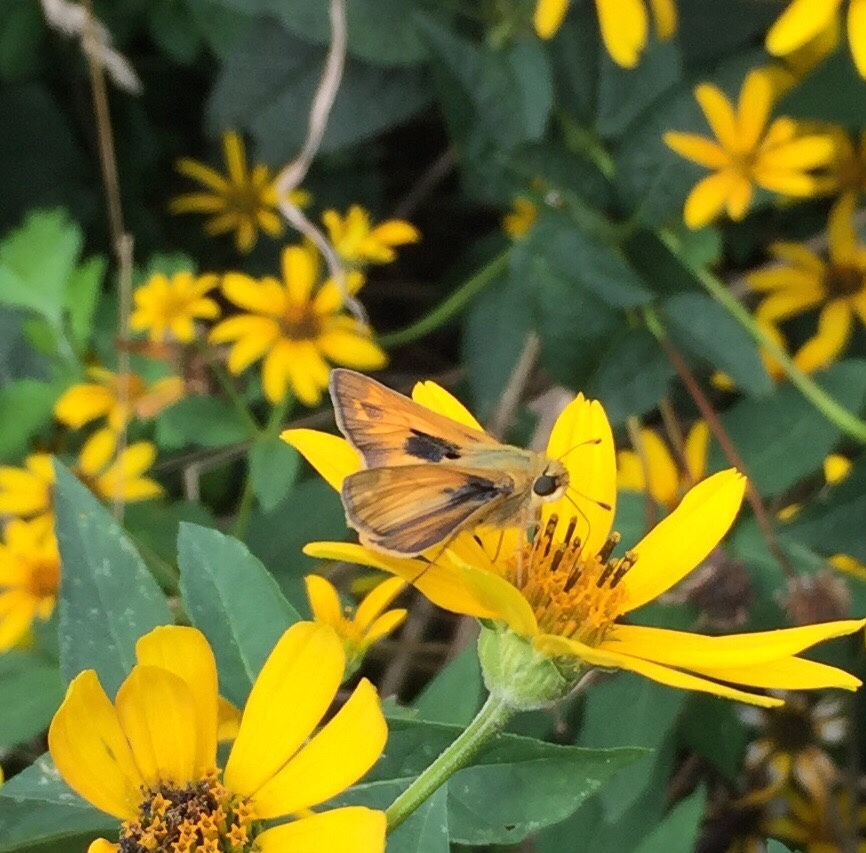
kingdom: Animalia
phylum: Arthropoda
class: Insecta
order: Lepidoptera
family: Hesperiidae
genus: Atalopedes
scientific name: Atalopedes
